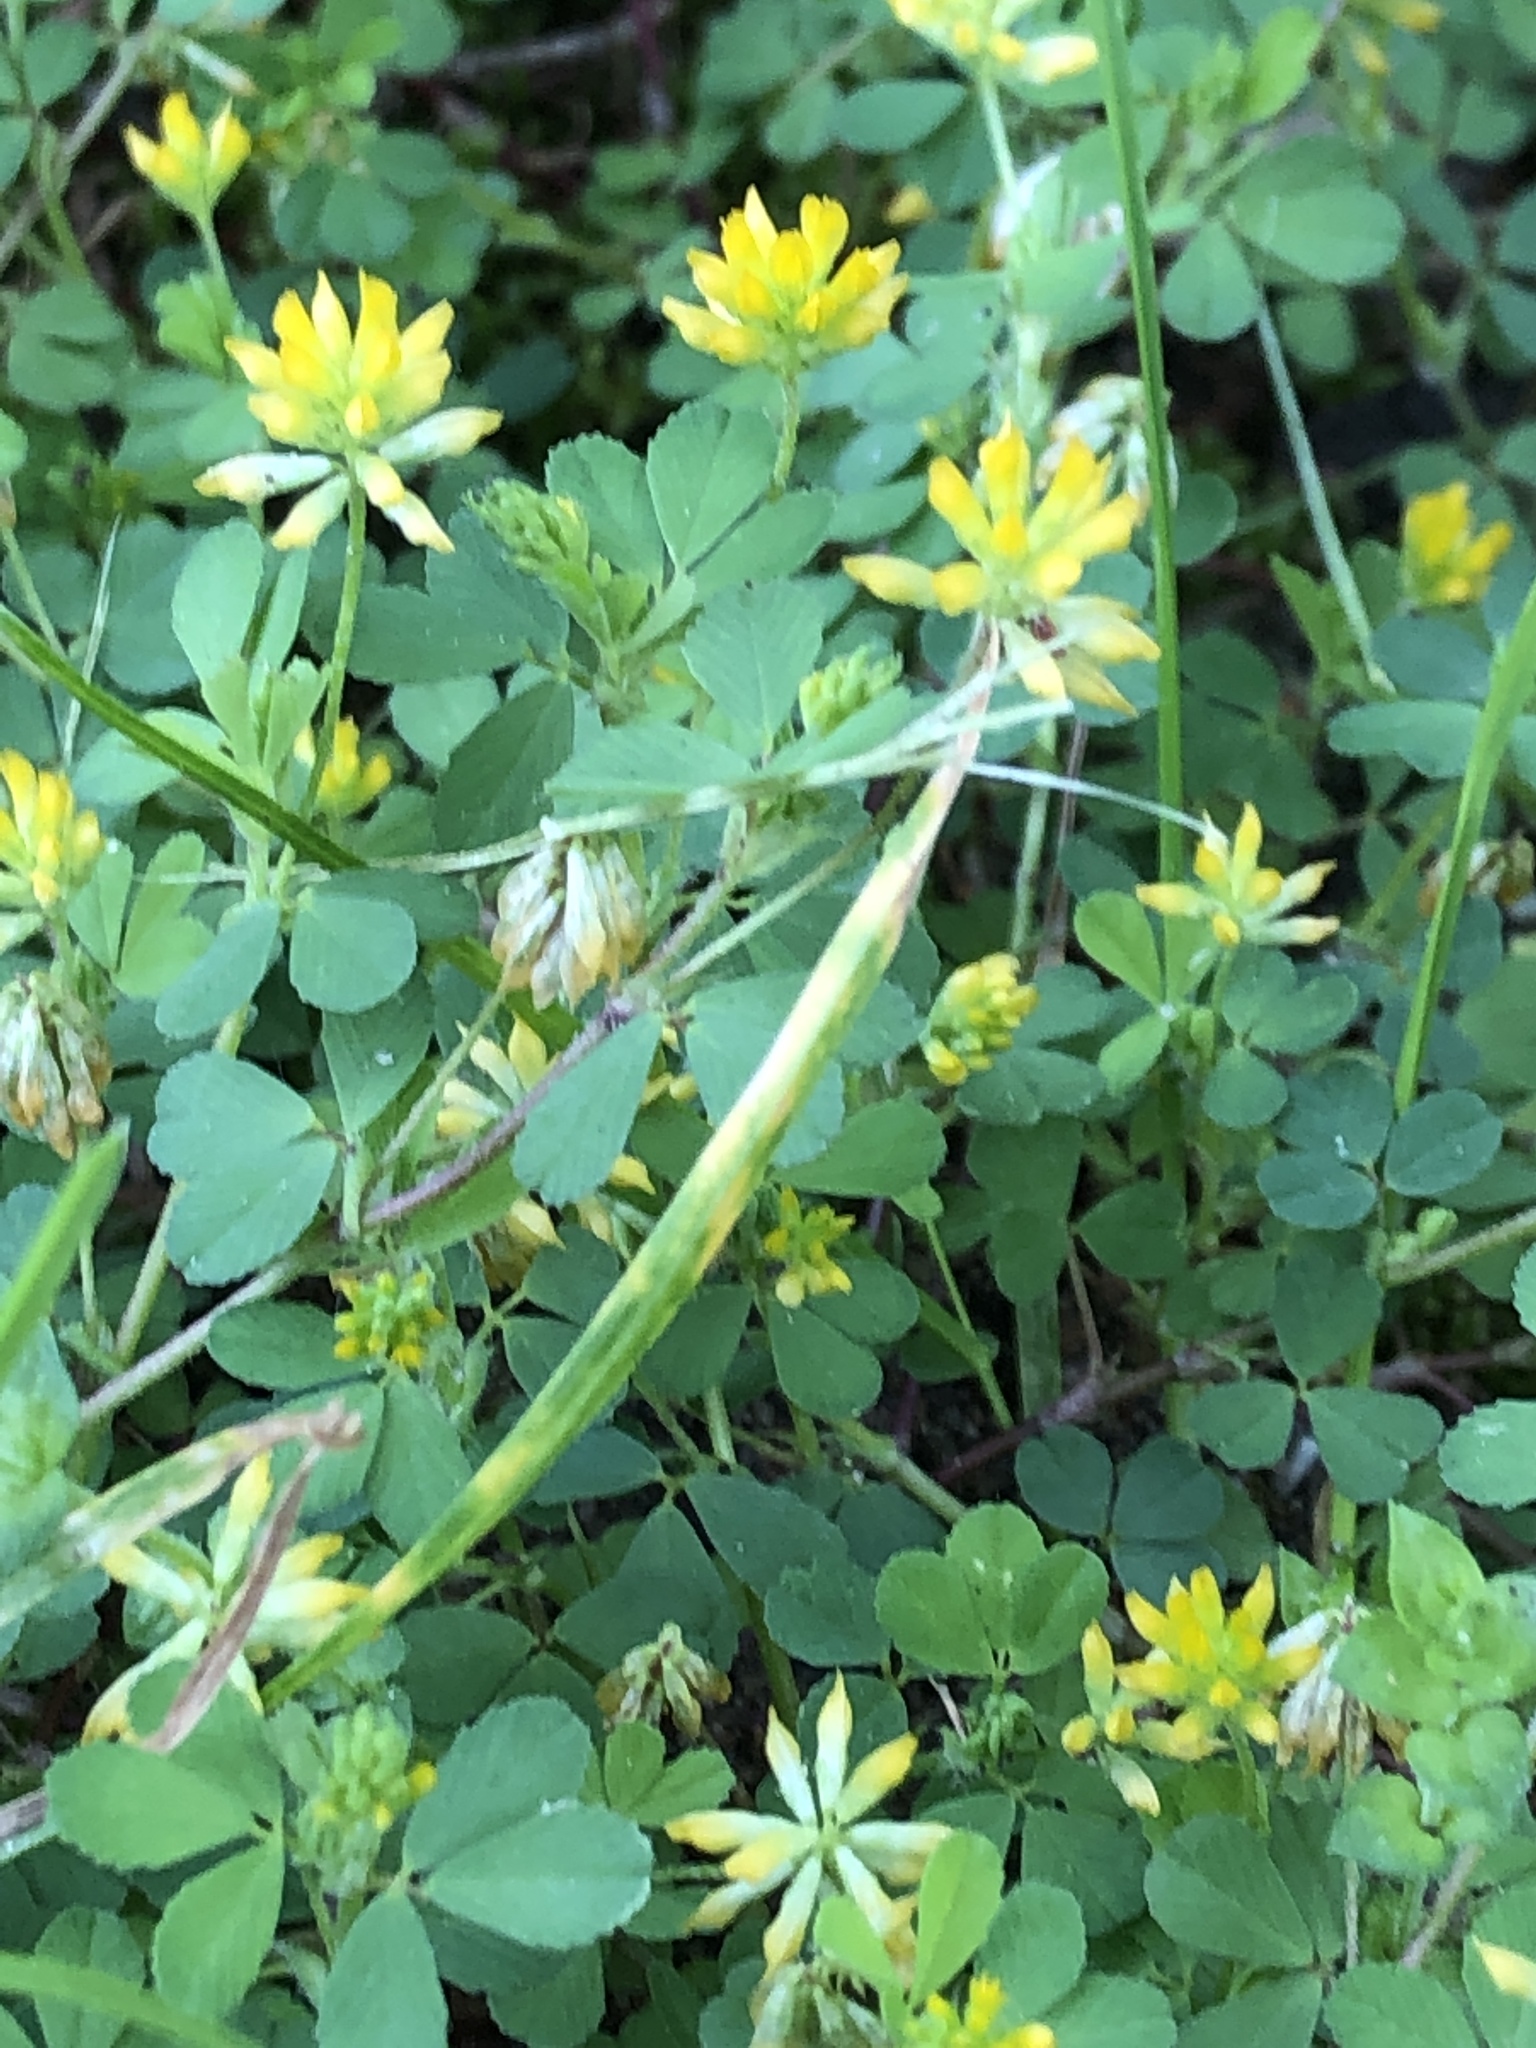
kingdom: Plantae
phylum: Tracheophyta
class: Magnoliopsida
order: Fabales
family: Fabaceae
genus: Trifolium
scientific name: Trifolium dubium
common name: Suckling clover
